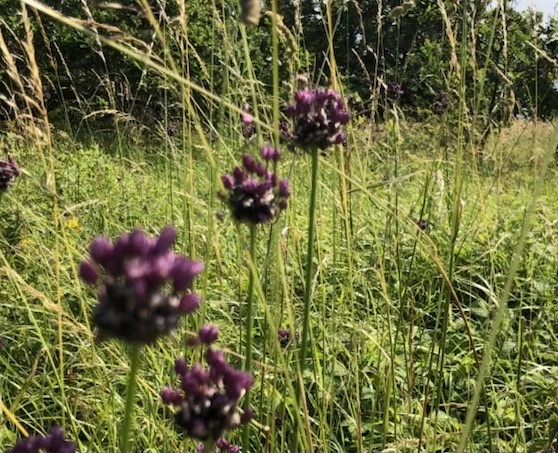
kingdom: Plantae
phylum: Tracheophyta
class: Liliopsida
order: Asparagales
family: Amaryllidaceae
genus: Allium
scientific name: Allium scorodoprasum
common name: Sand leek
